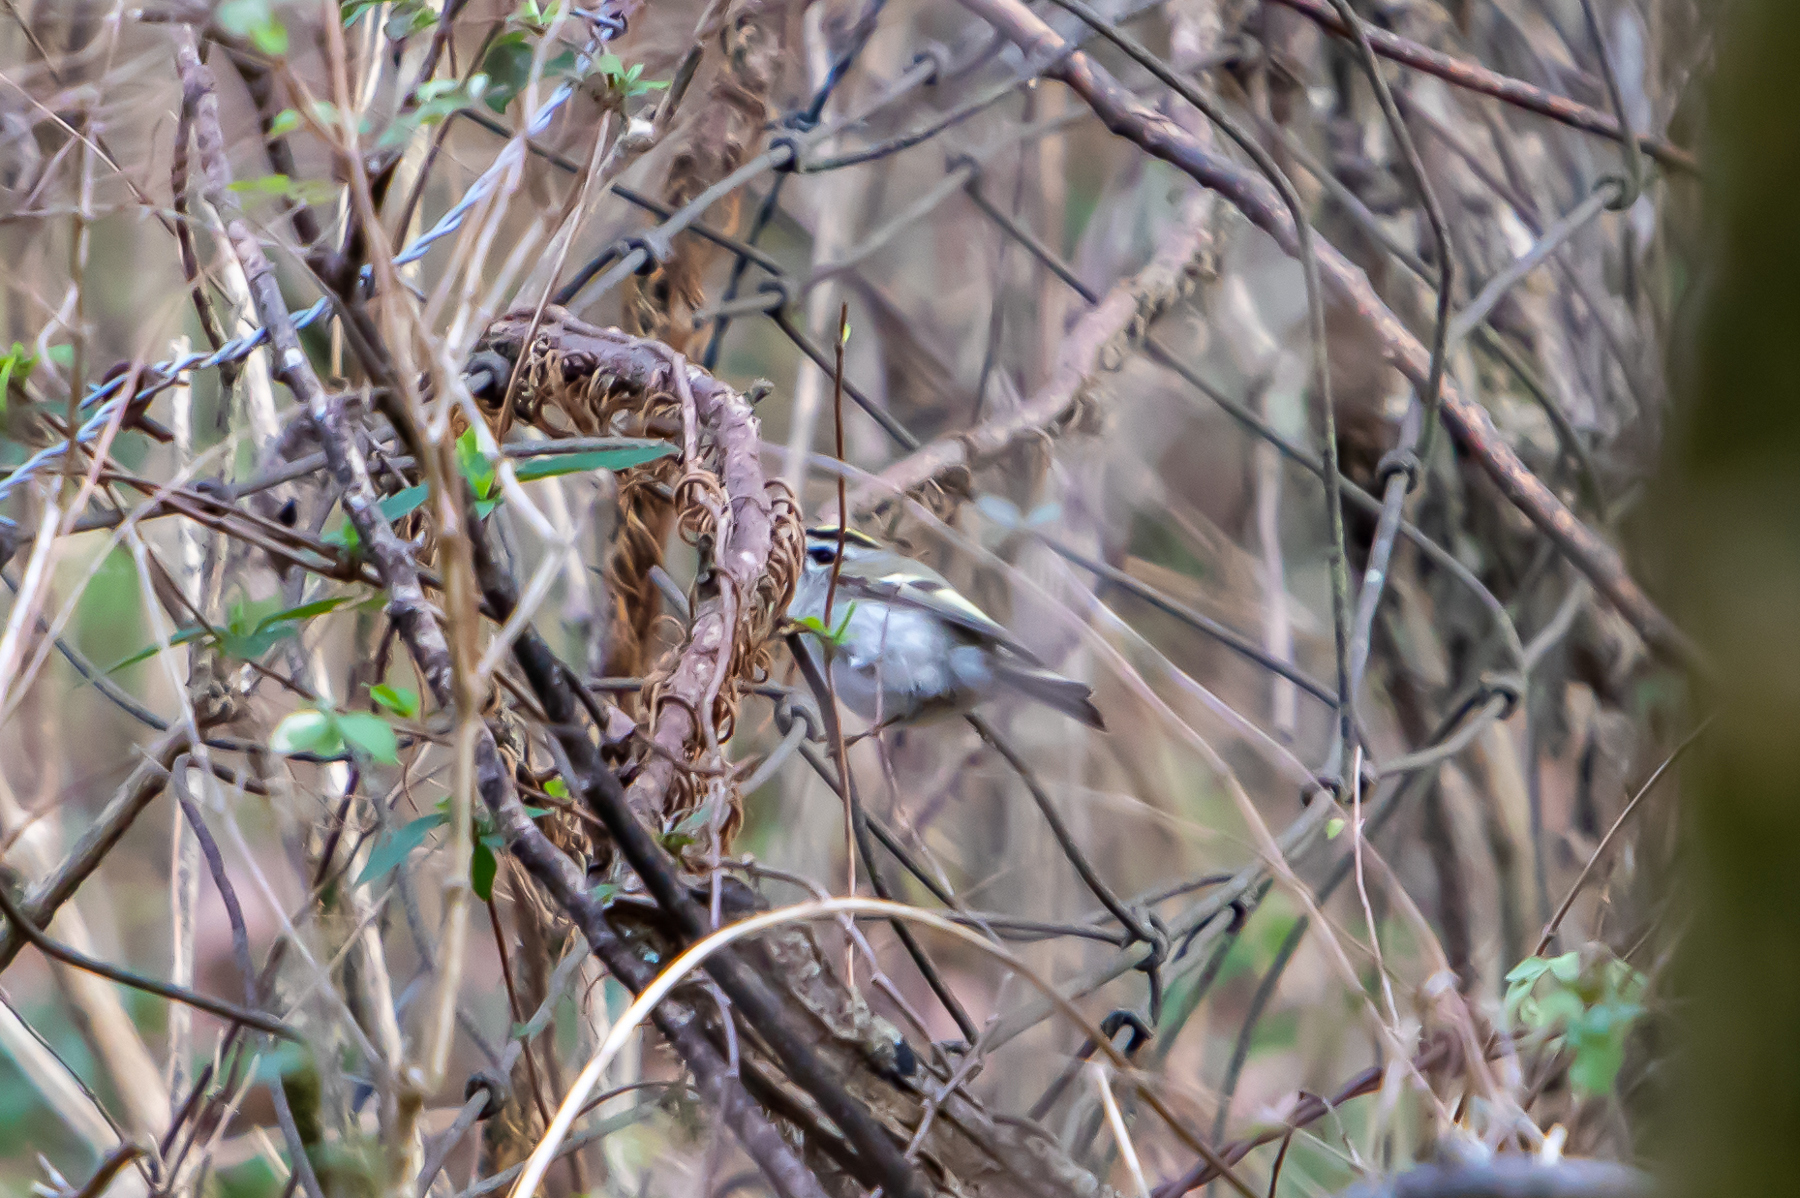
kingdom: Animalia
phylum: Chordata
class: Aves
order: Passeriformes
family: Regulidae
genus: Regulus
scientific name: Regulus satrapa
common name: Golden-crowned kinglet
